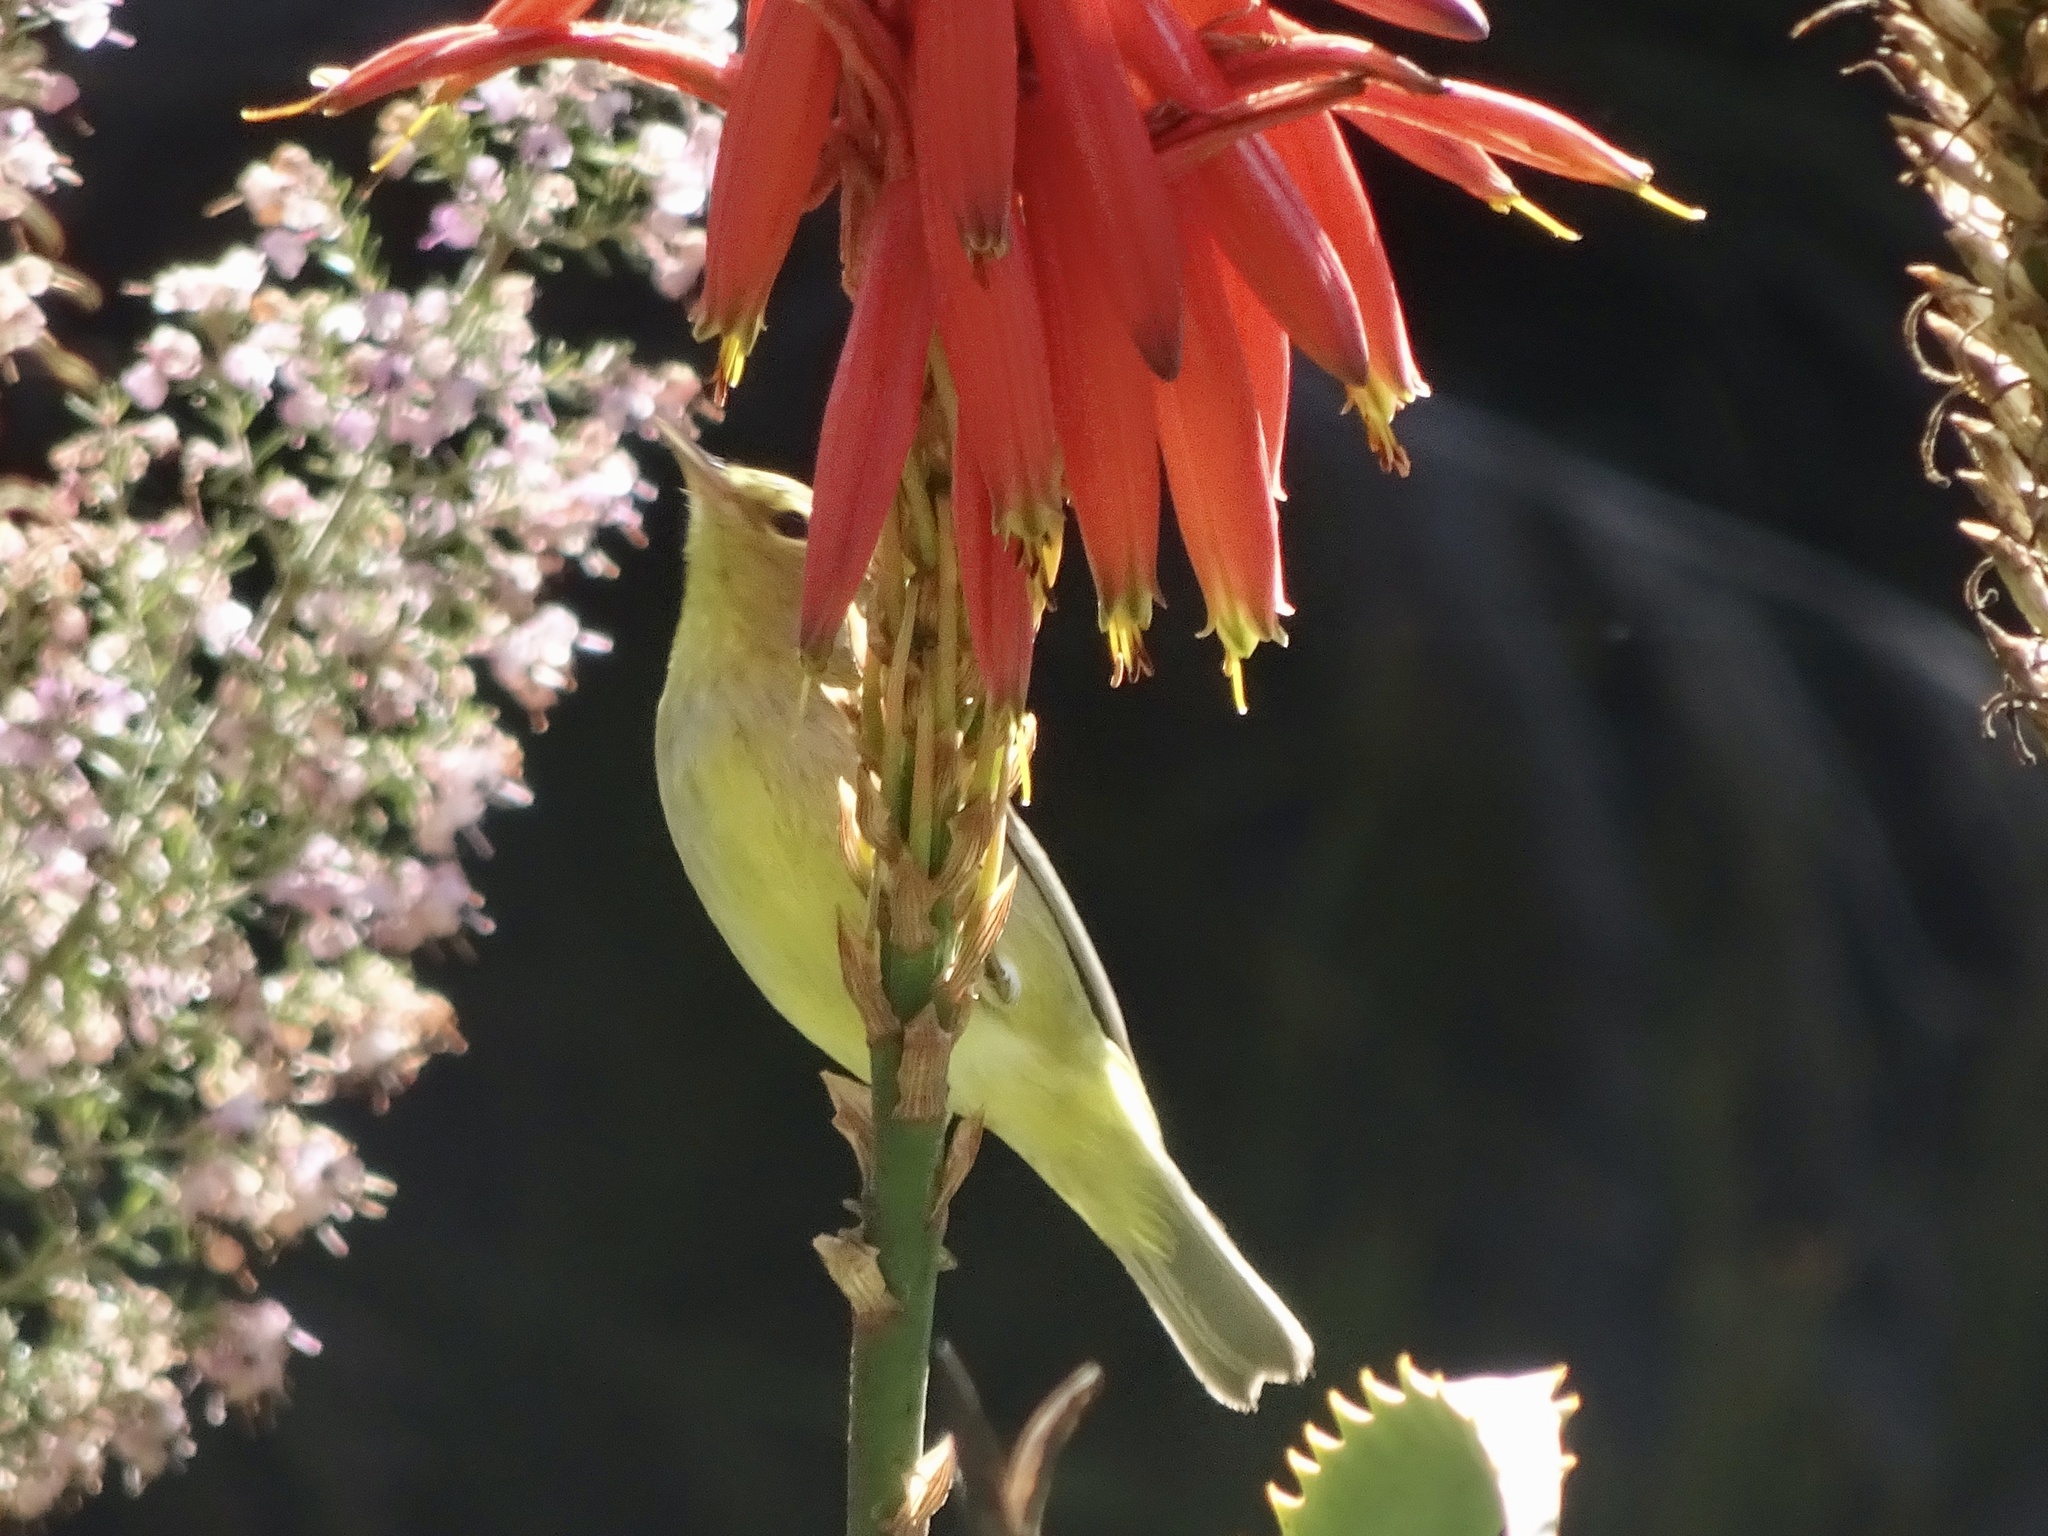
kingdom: Animalia
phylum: Chordata
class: Aves
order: Passeriformes
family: Parulidae
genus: Leiothlypis
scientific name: Leiothlypis celata
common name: Orange-crowned warbler
